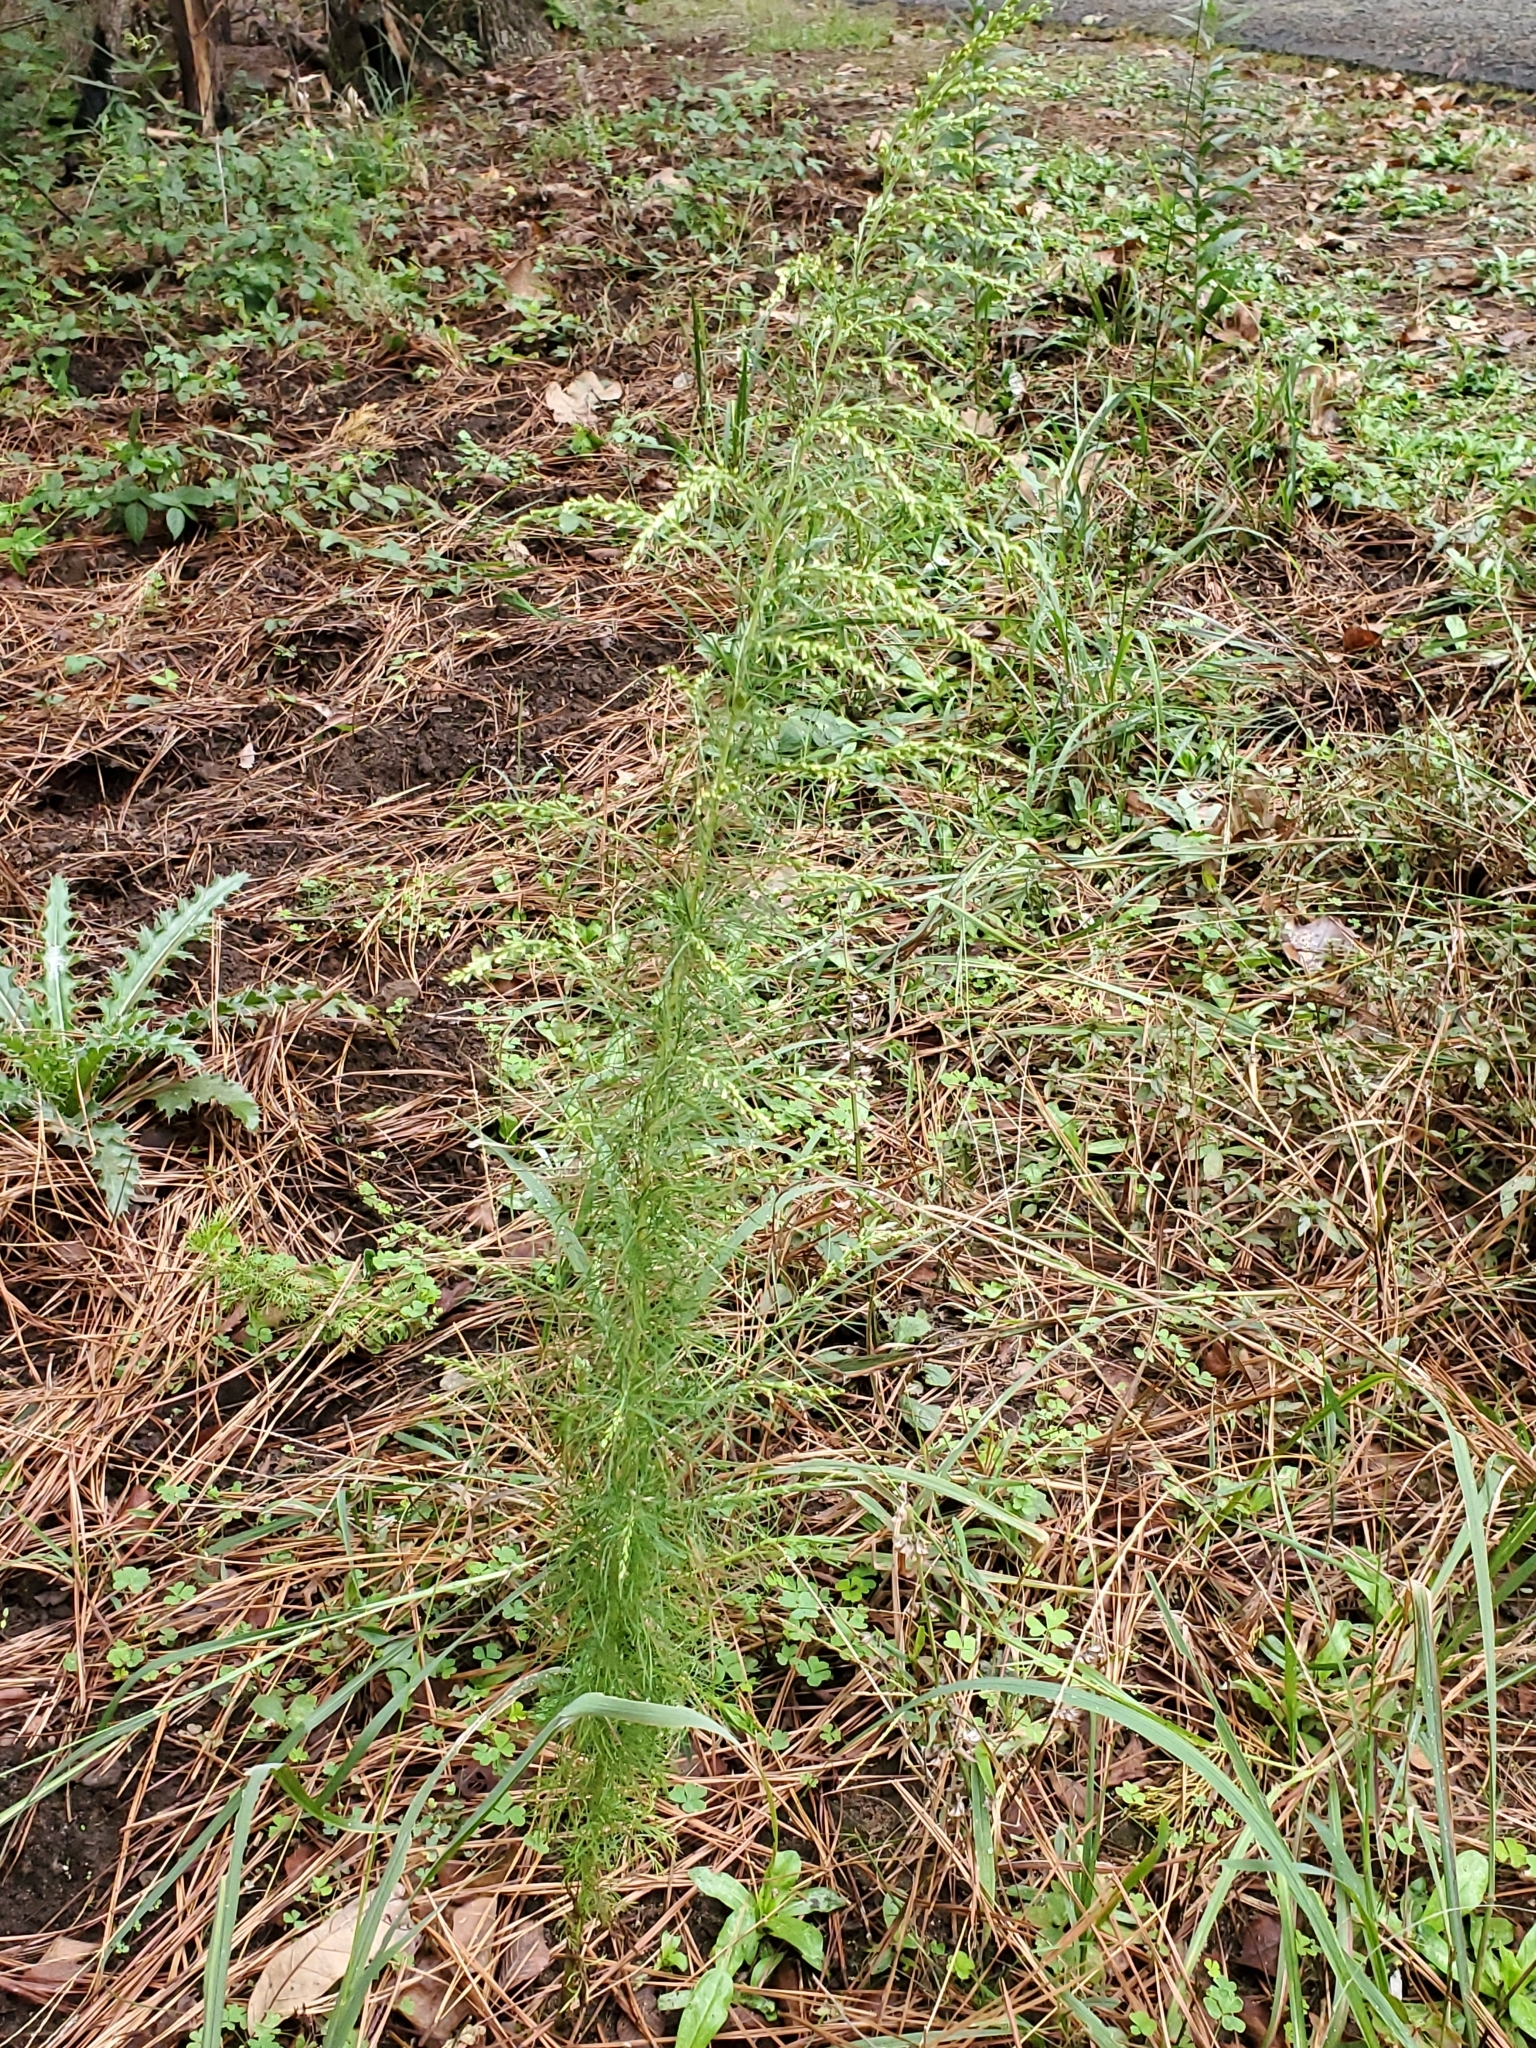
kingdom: Plantae
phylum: Tracheophyta
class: Magnoliopsida
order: Asterales
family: Asteraceae
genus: Eupatorium
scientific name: Eupatorium capillifolium
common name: Dog-fennel
